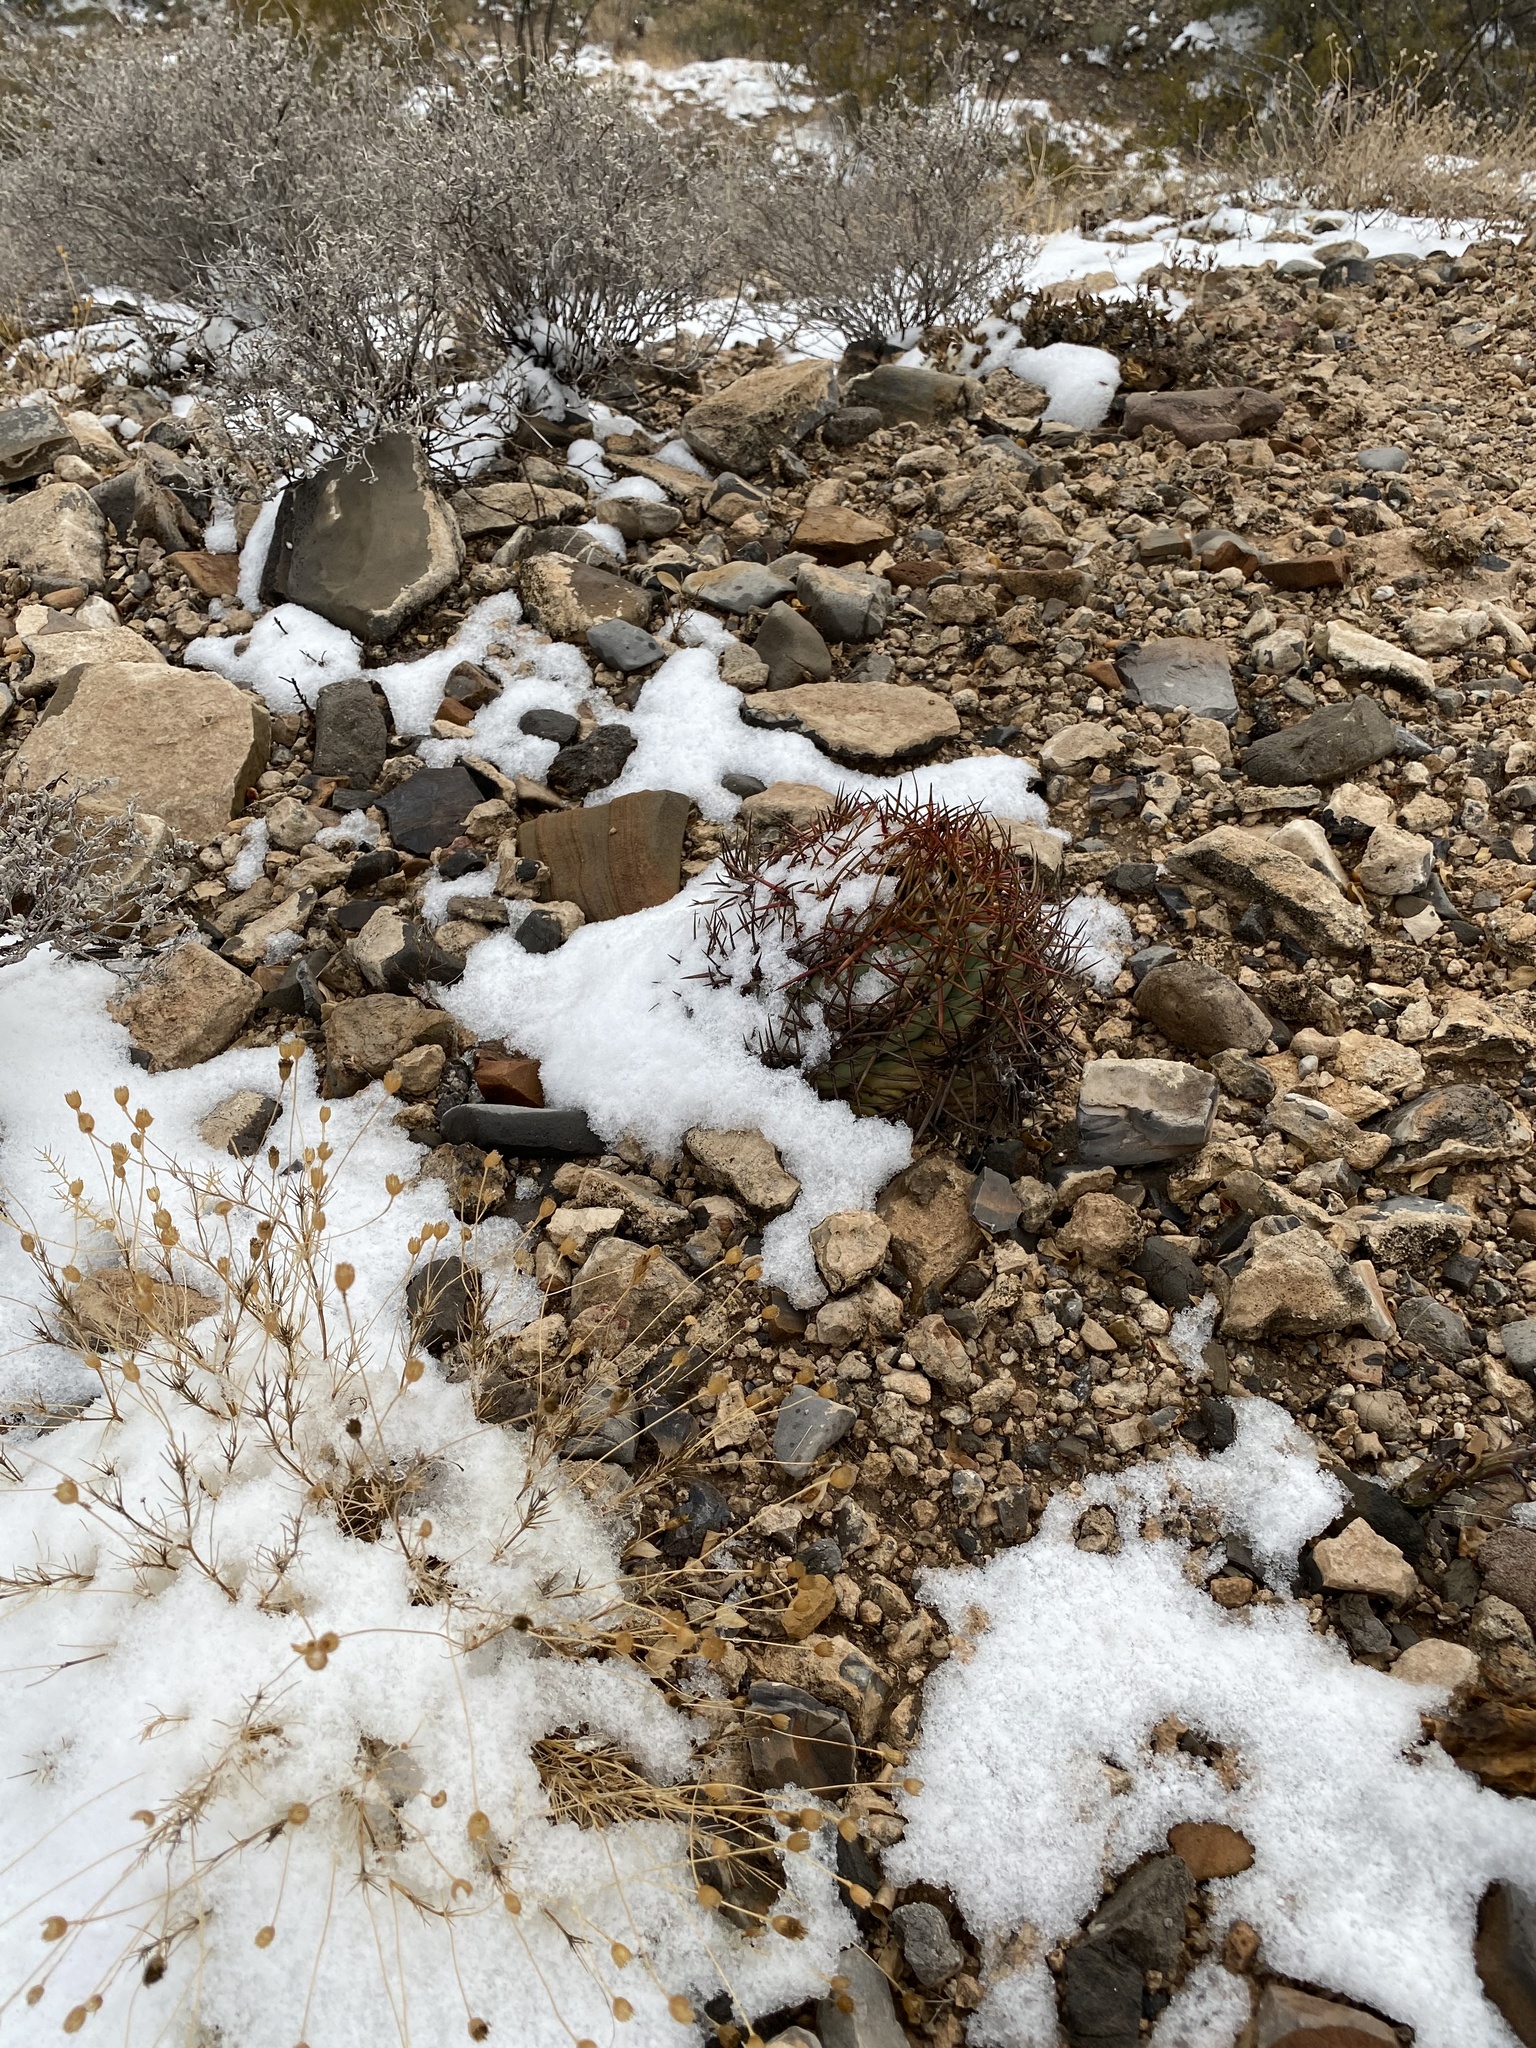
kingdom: Plantae
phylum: Tracheophyta
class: Magnoliopsida
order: Caryophyllales
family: Cactaceae
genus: Echinocactus
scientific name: Echinocactus horizonthalonius
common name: Devilshead
